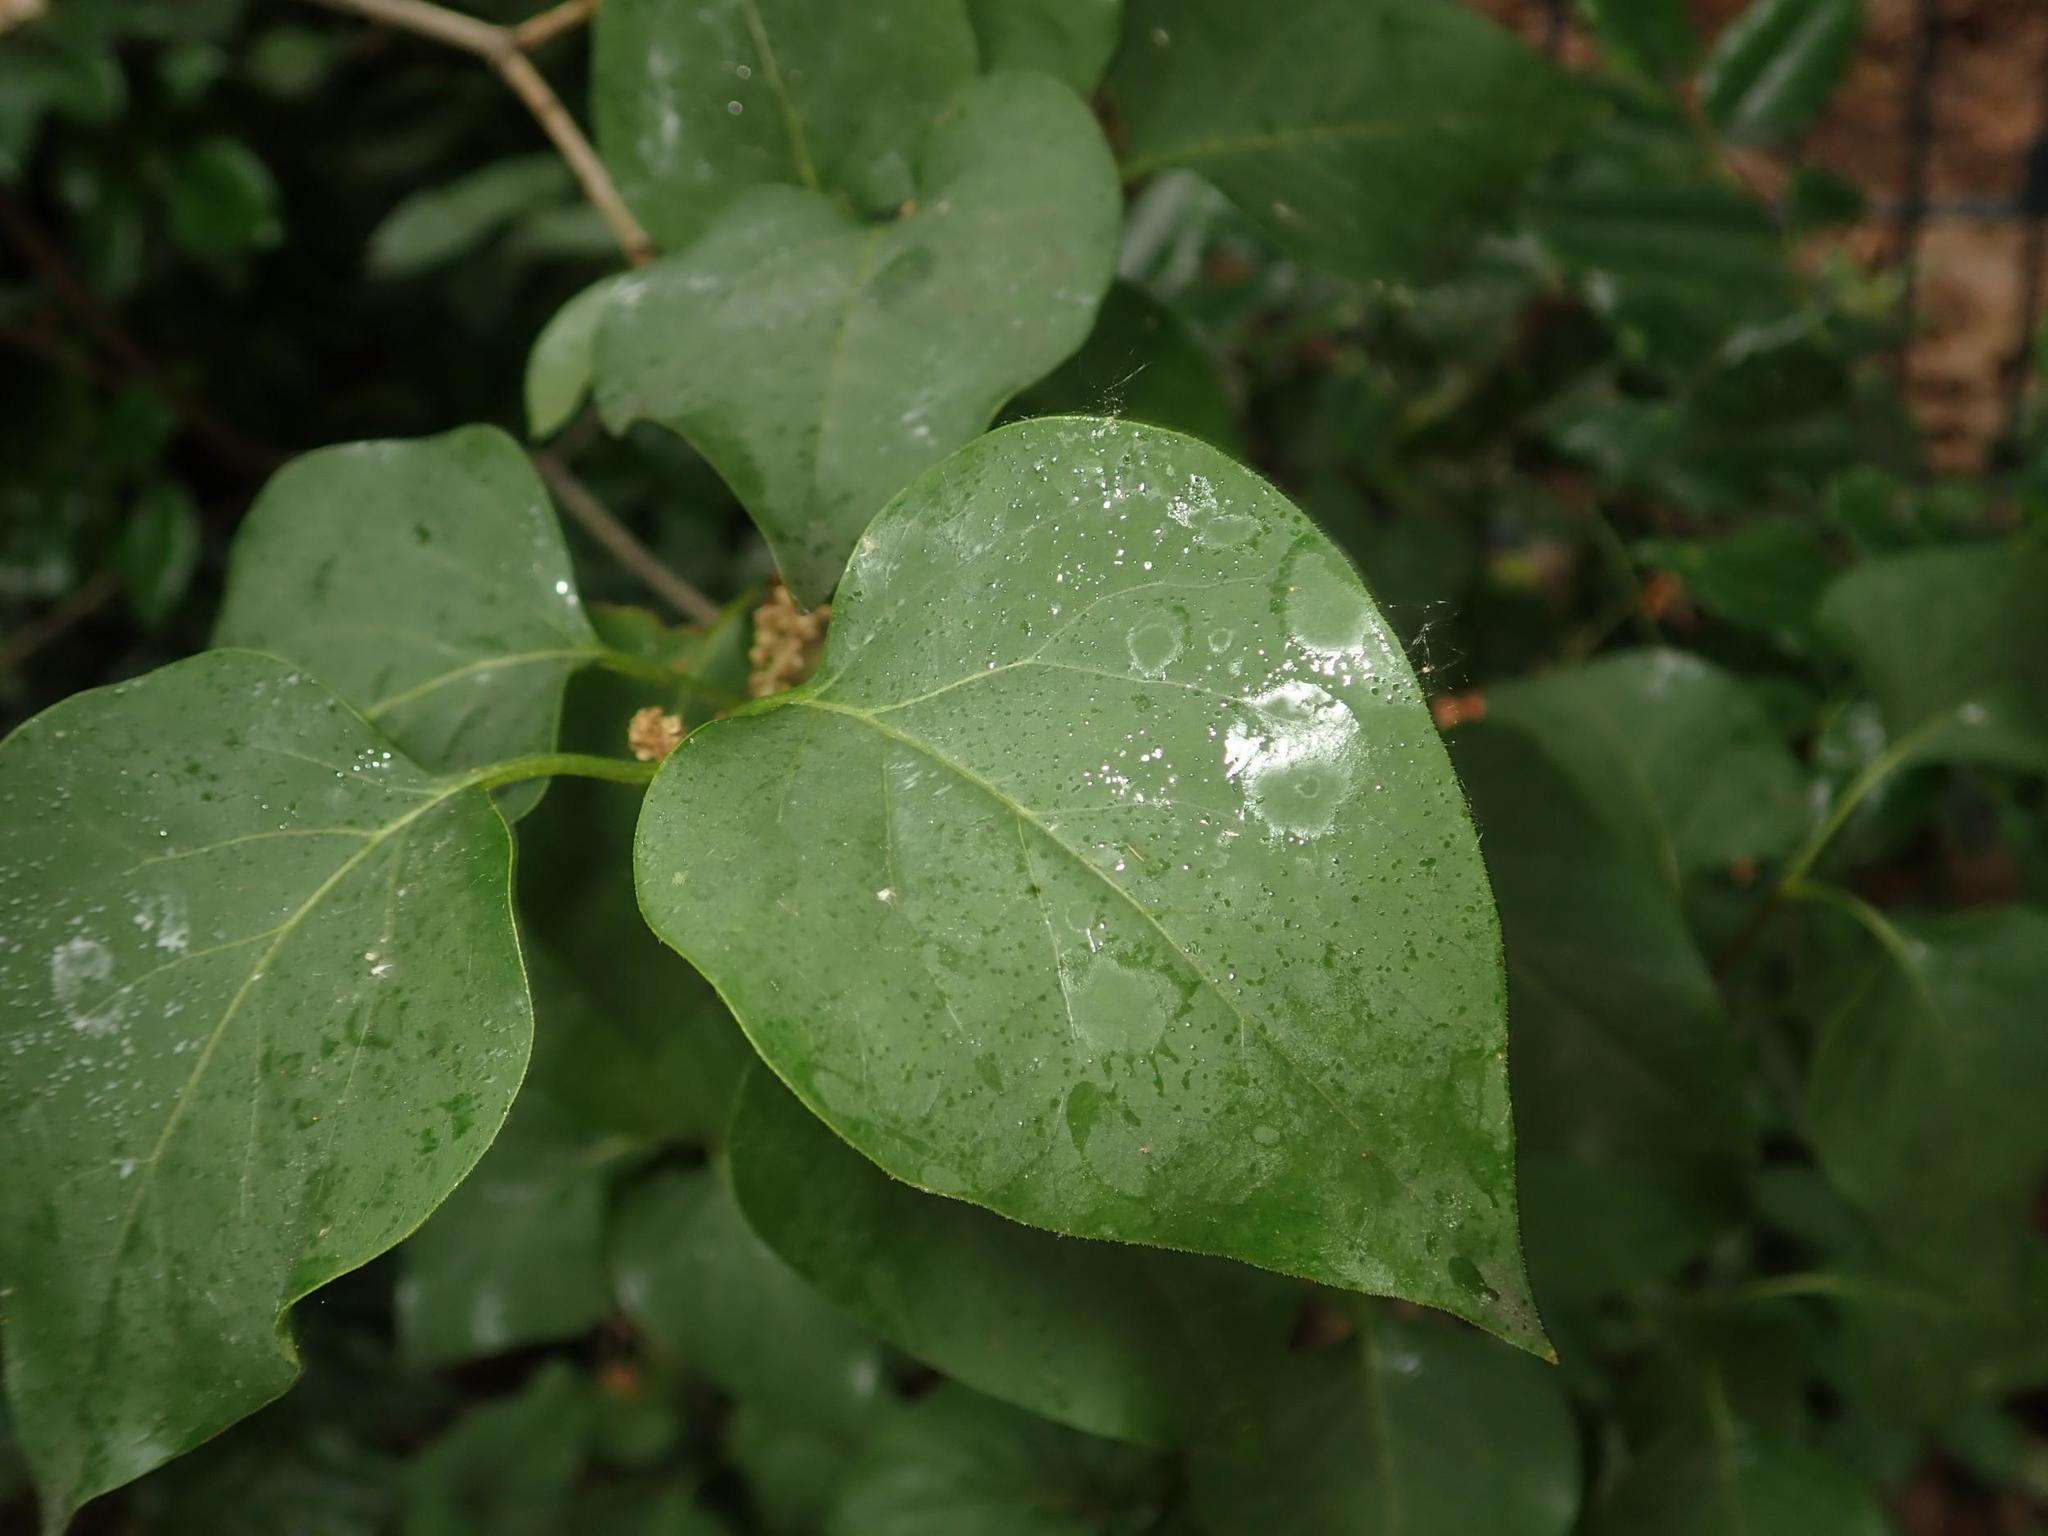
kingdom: Plantae
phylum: Tracheophyta
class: Magnoliopsida
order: Lamiales
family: Oleaceae
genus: Syringa
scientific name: Syringa vulgaris
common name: Common lilac
